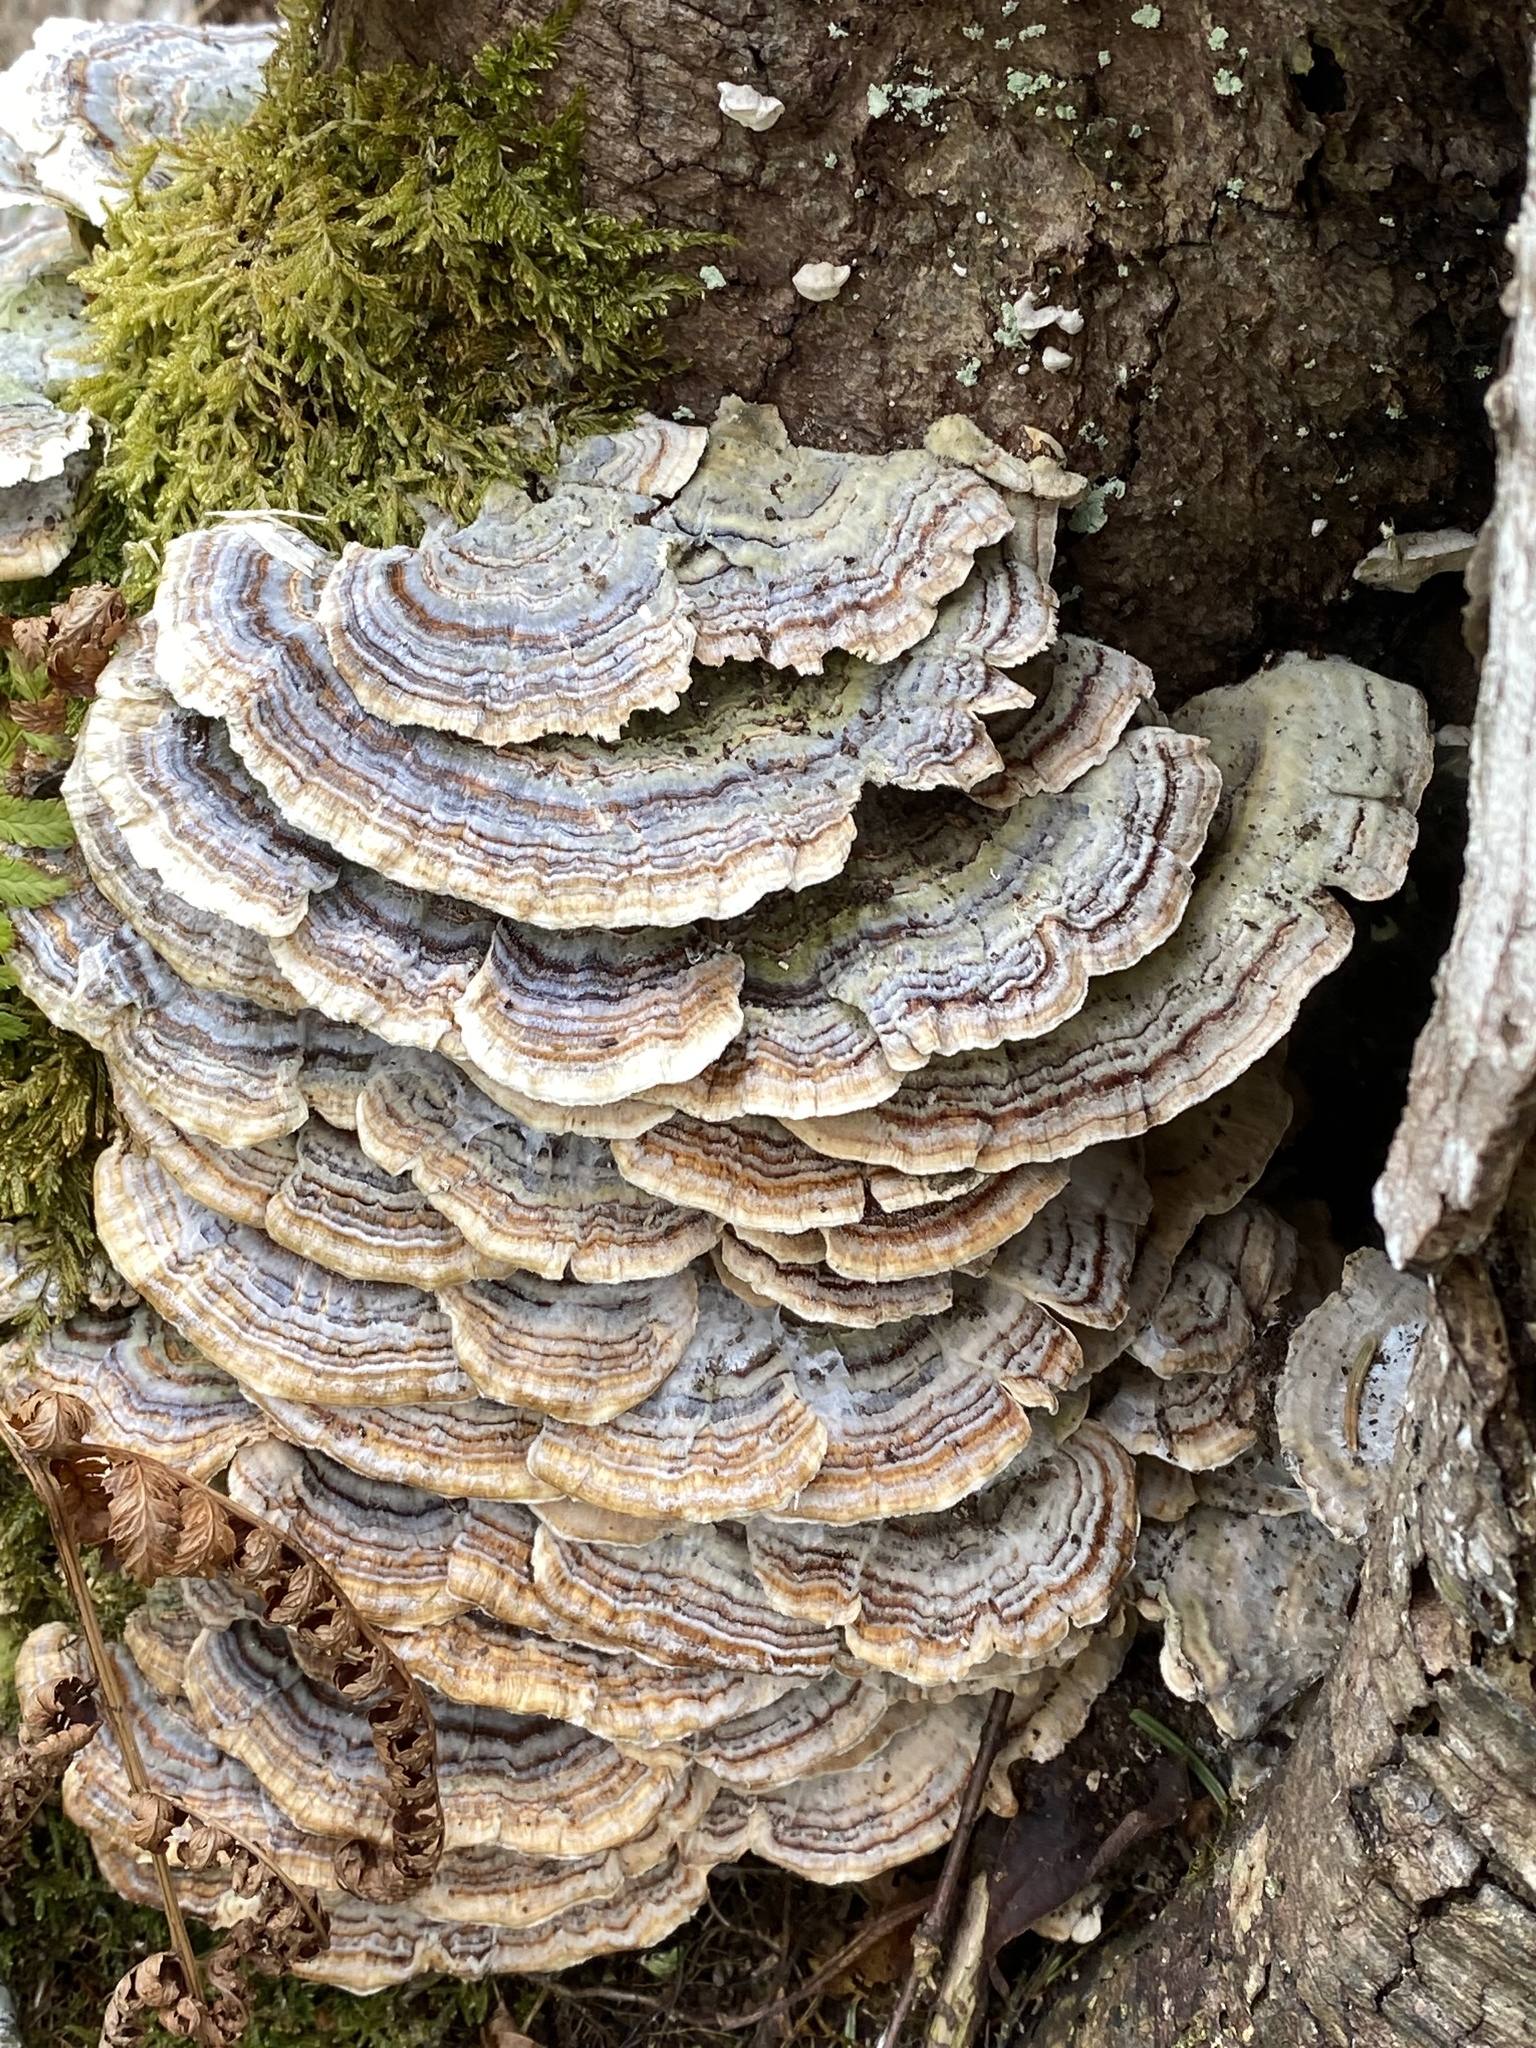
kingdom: Fungi
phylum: Basidiomycota
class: Agaricomycetes
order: Polyporales
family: Polyporaceae
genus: Trametes
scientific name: Trametes versicolor
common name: Turkeytail
